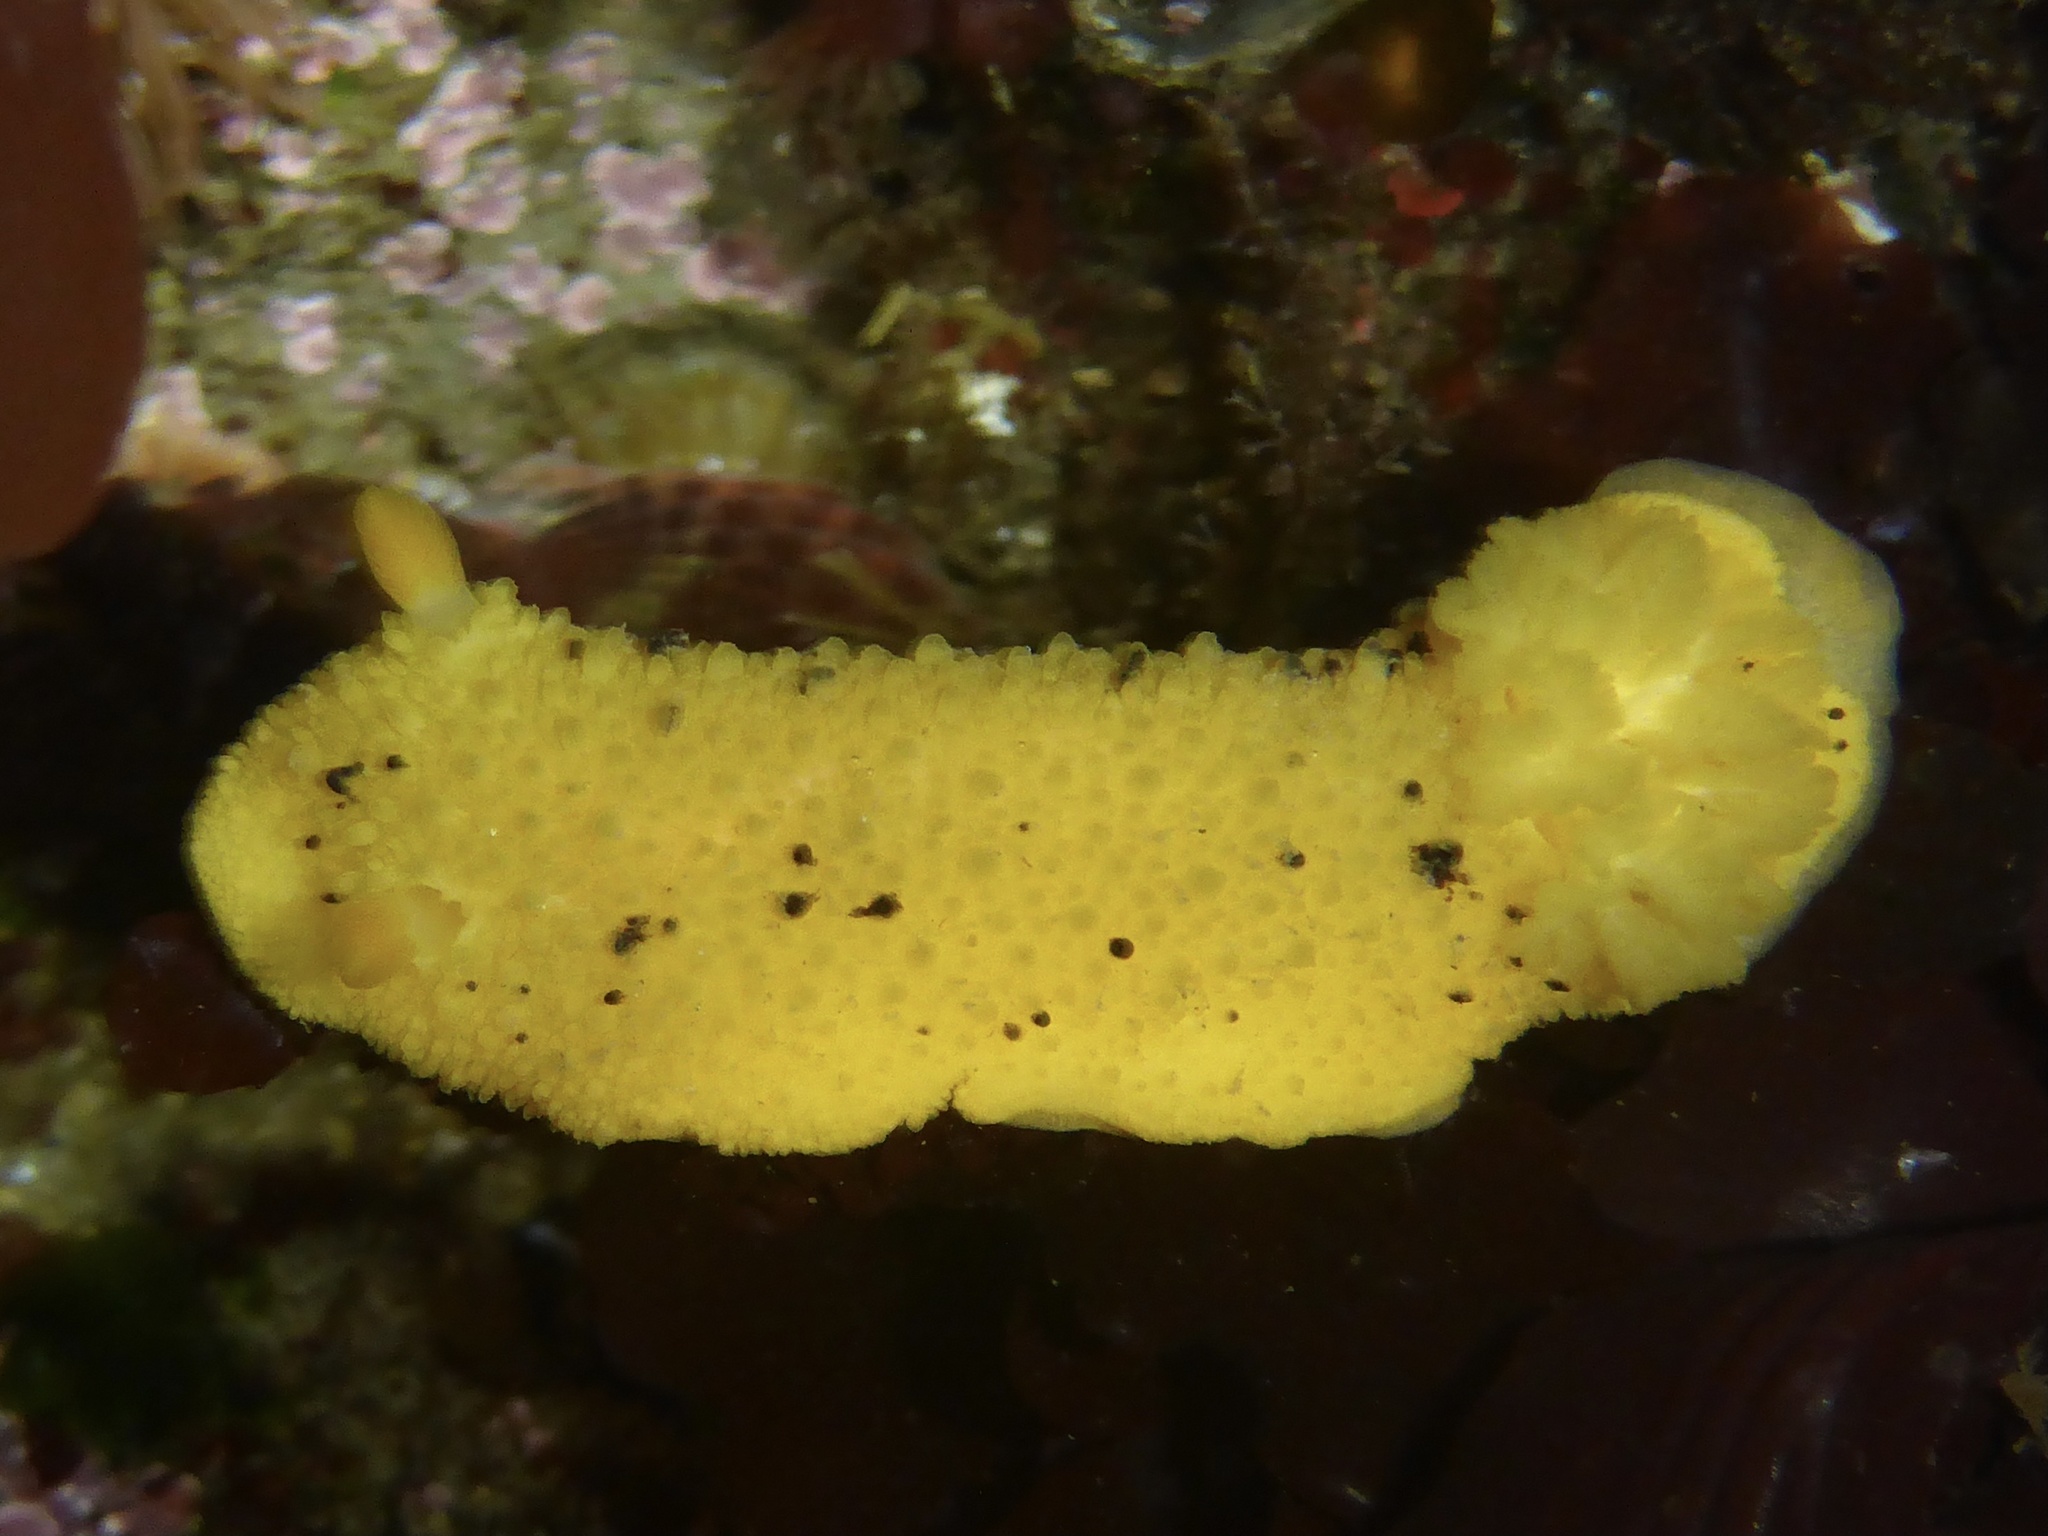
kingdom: Animalia
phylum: Mollusca
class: Gastropoda
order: Nudibranchia
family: Dorididae
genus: Doris
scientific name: Doris montereyensis
